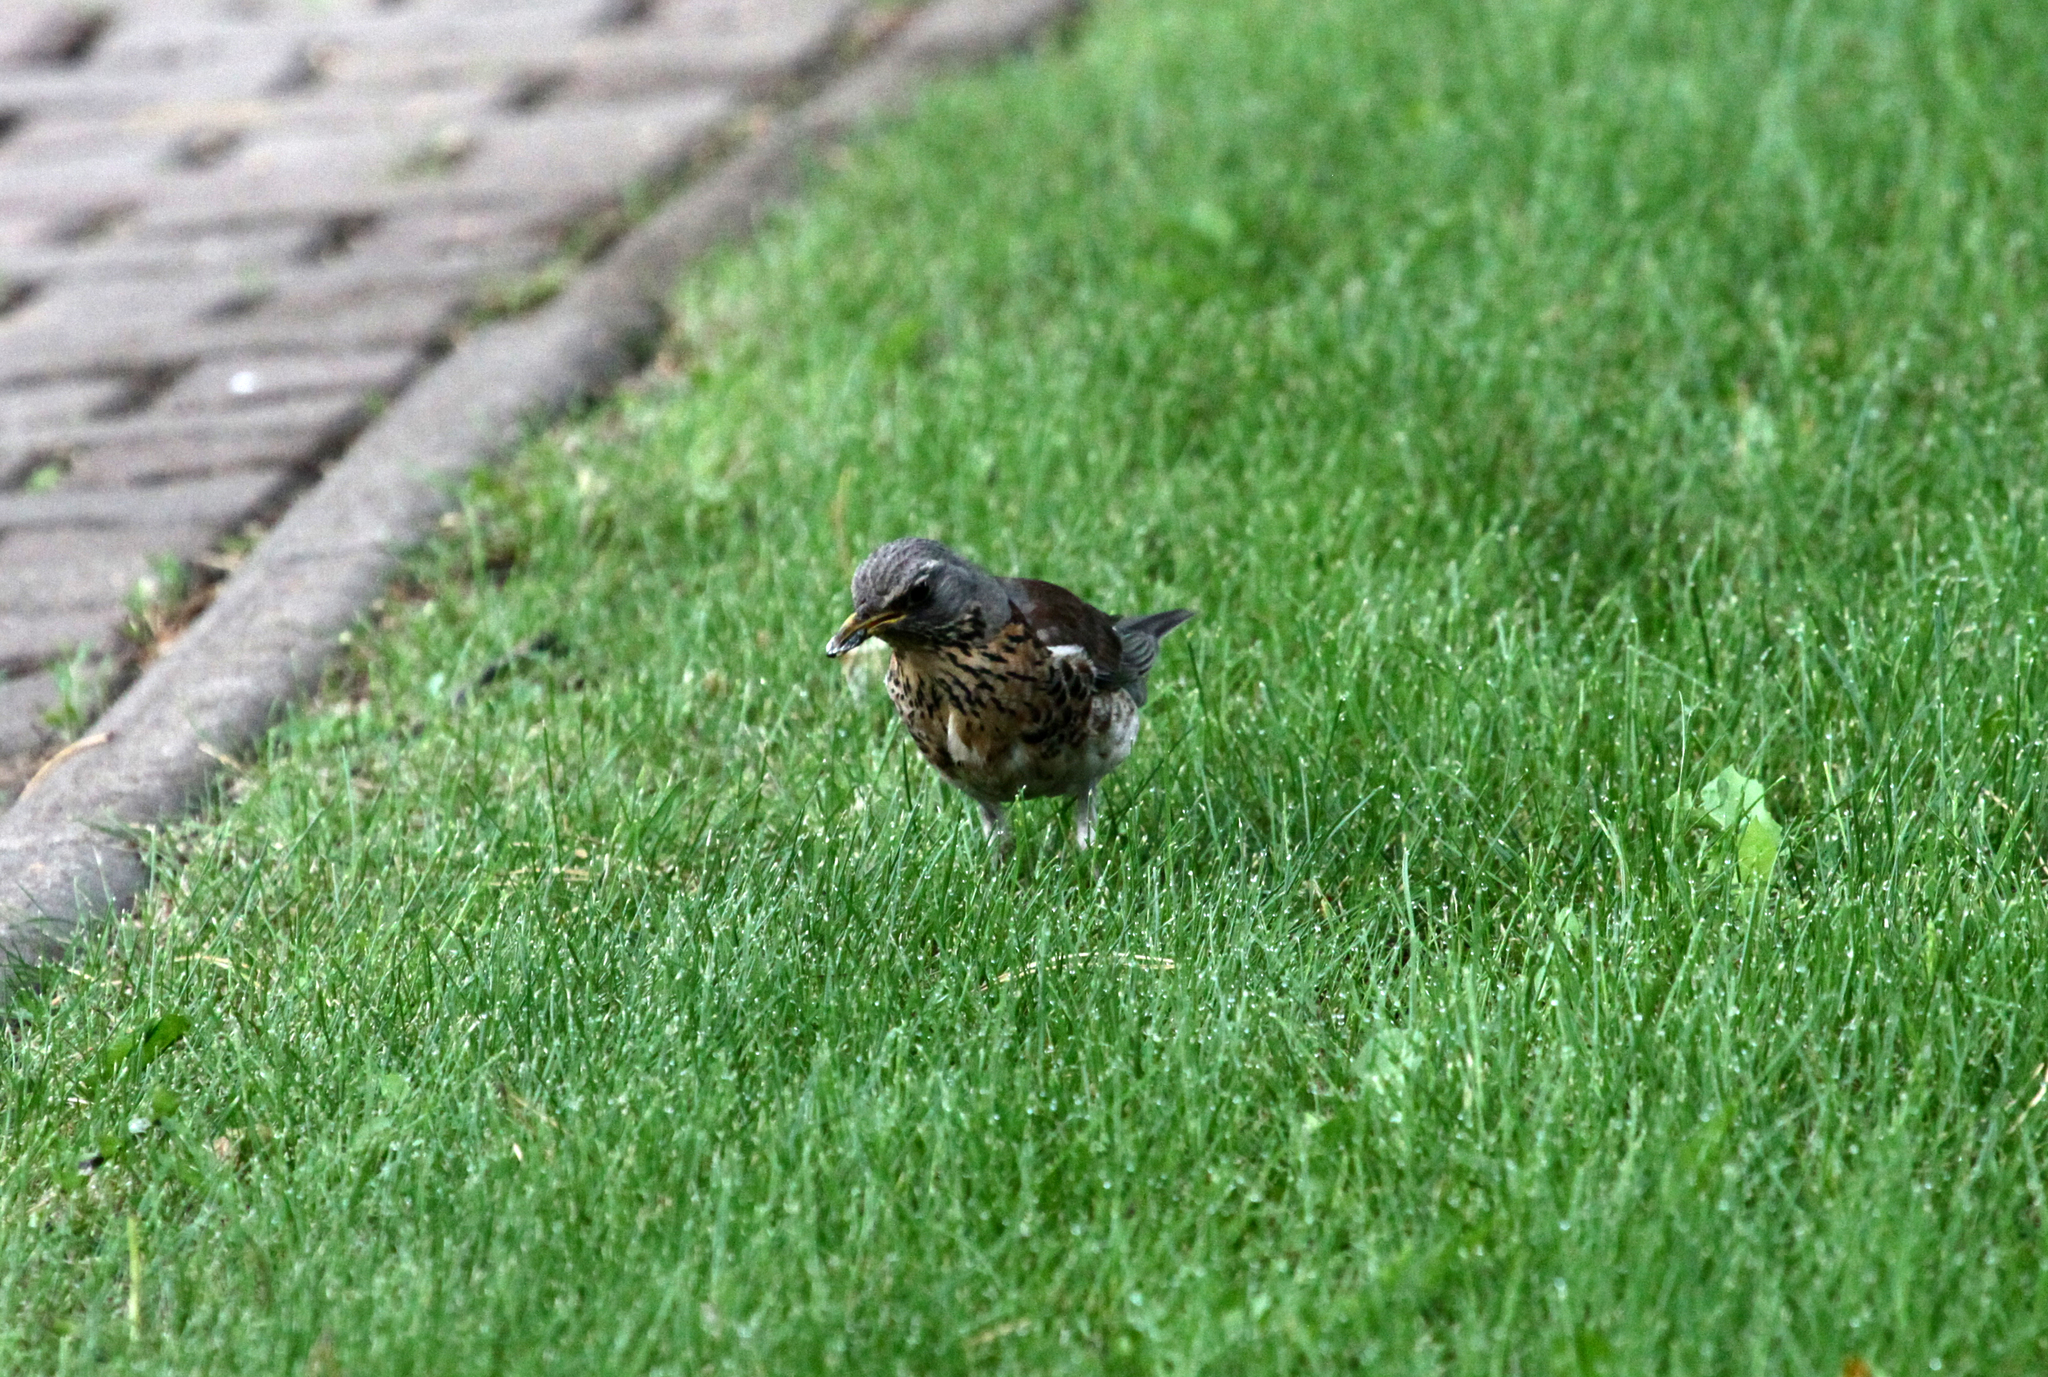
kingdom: Animalia
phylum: Chordata
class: Aves
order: Passeriformes
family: Turdidae
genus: Turdus
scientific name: Turdus pilaris
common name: Fieldfare
